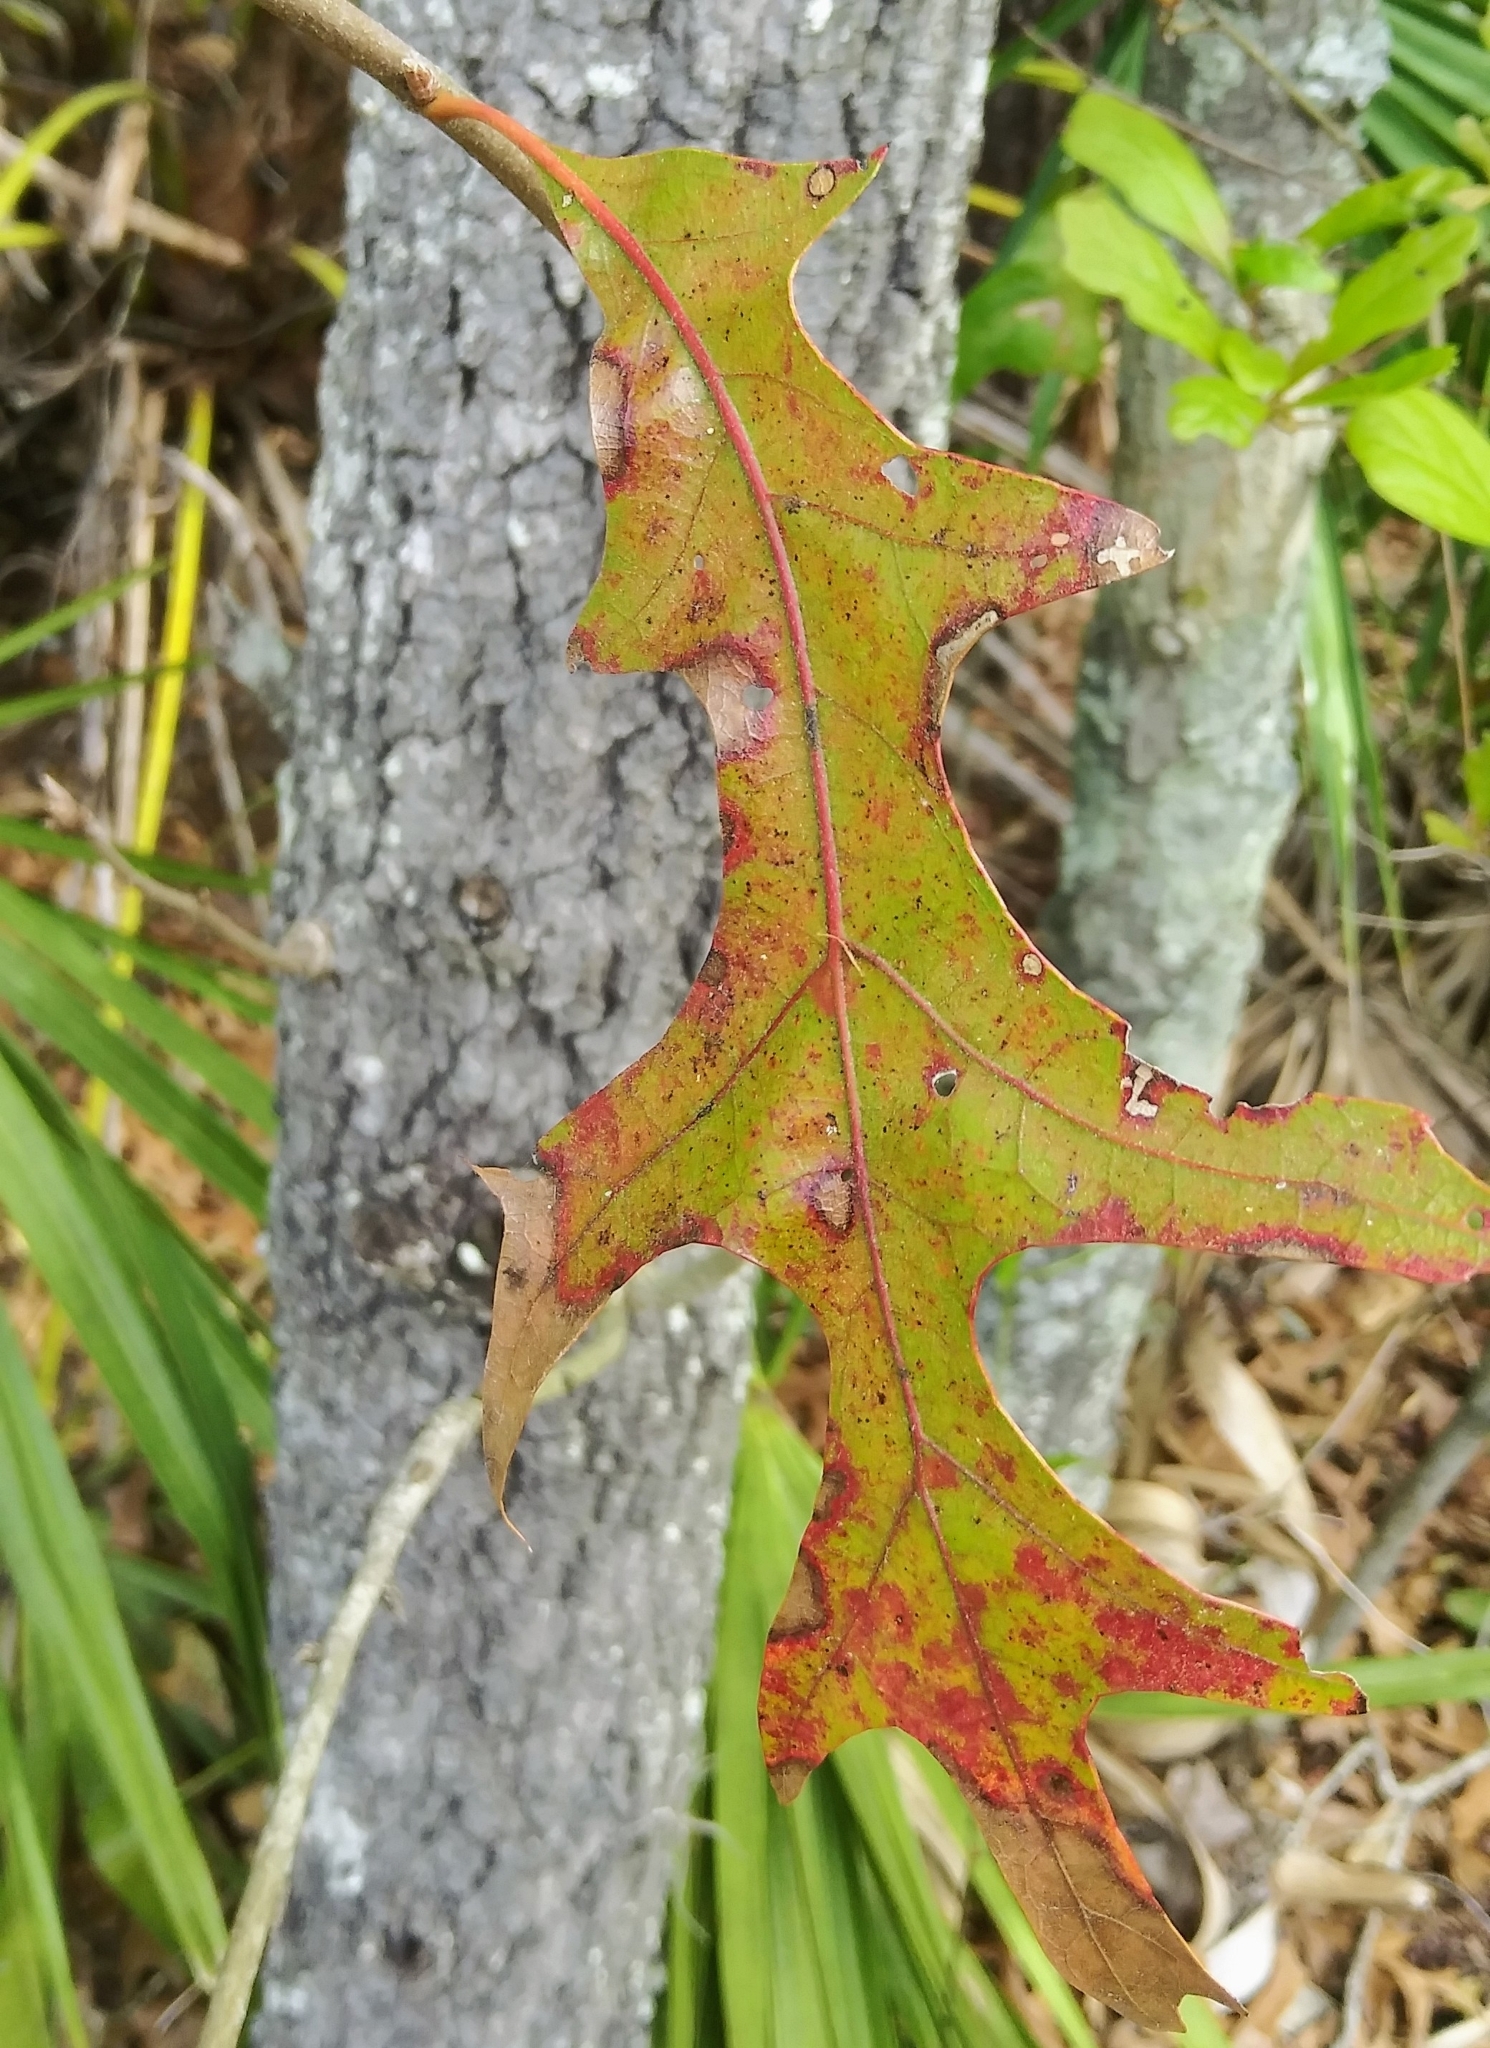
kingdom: Plantae
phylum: Tracheophyta
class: Magnoliopsida
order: Fagales
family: Fagaceae
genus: Quercus
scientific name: Quercus laevis
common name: Turkey oak
